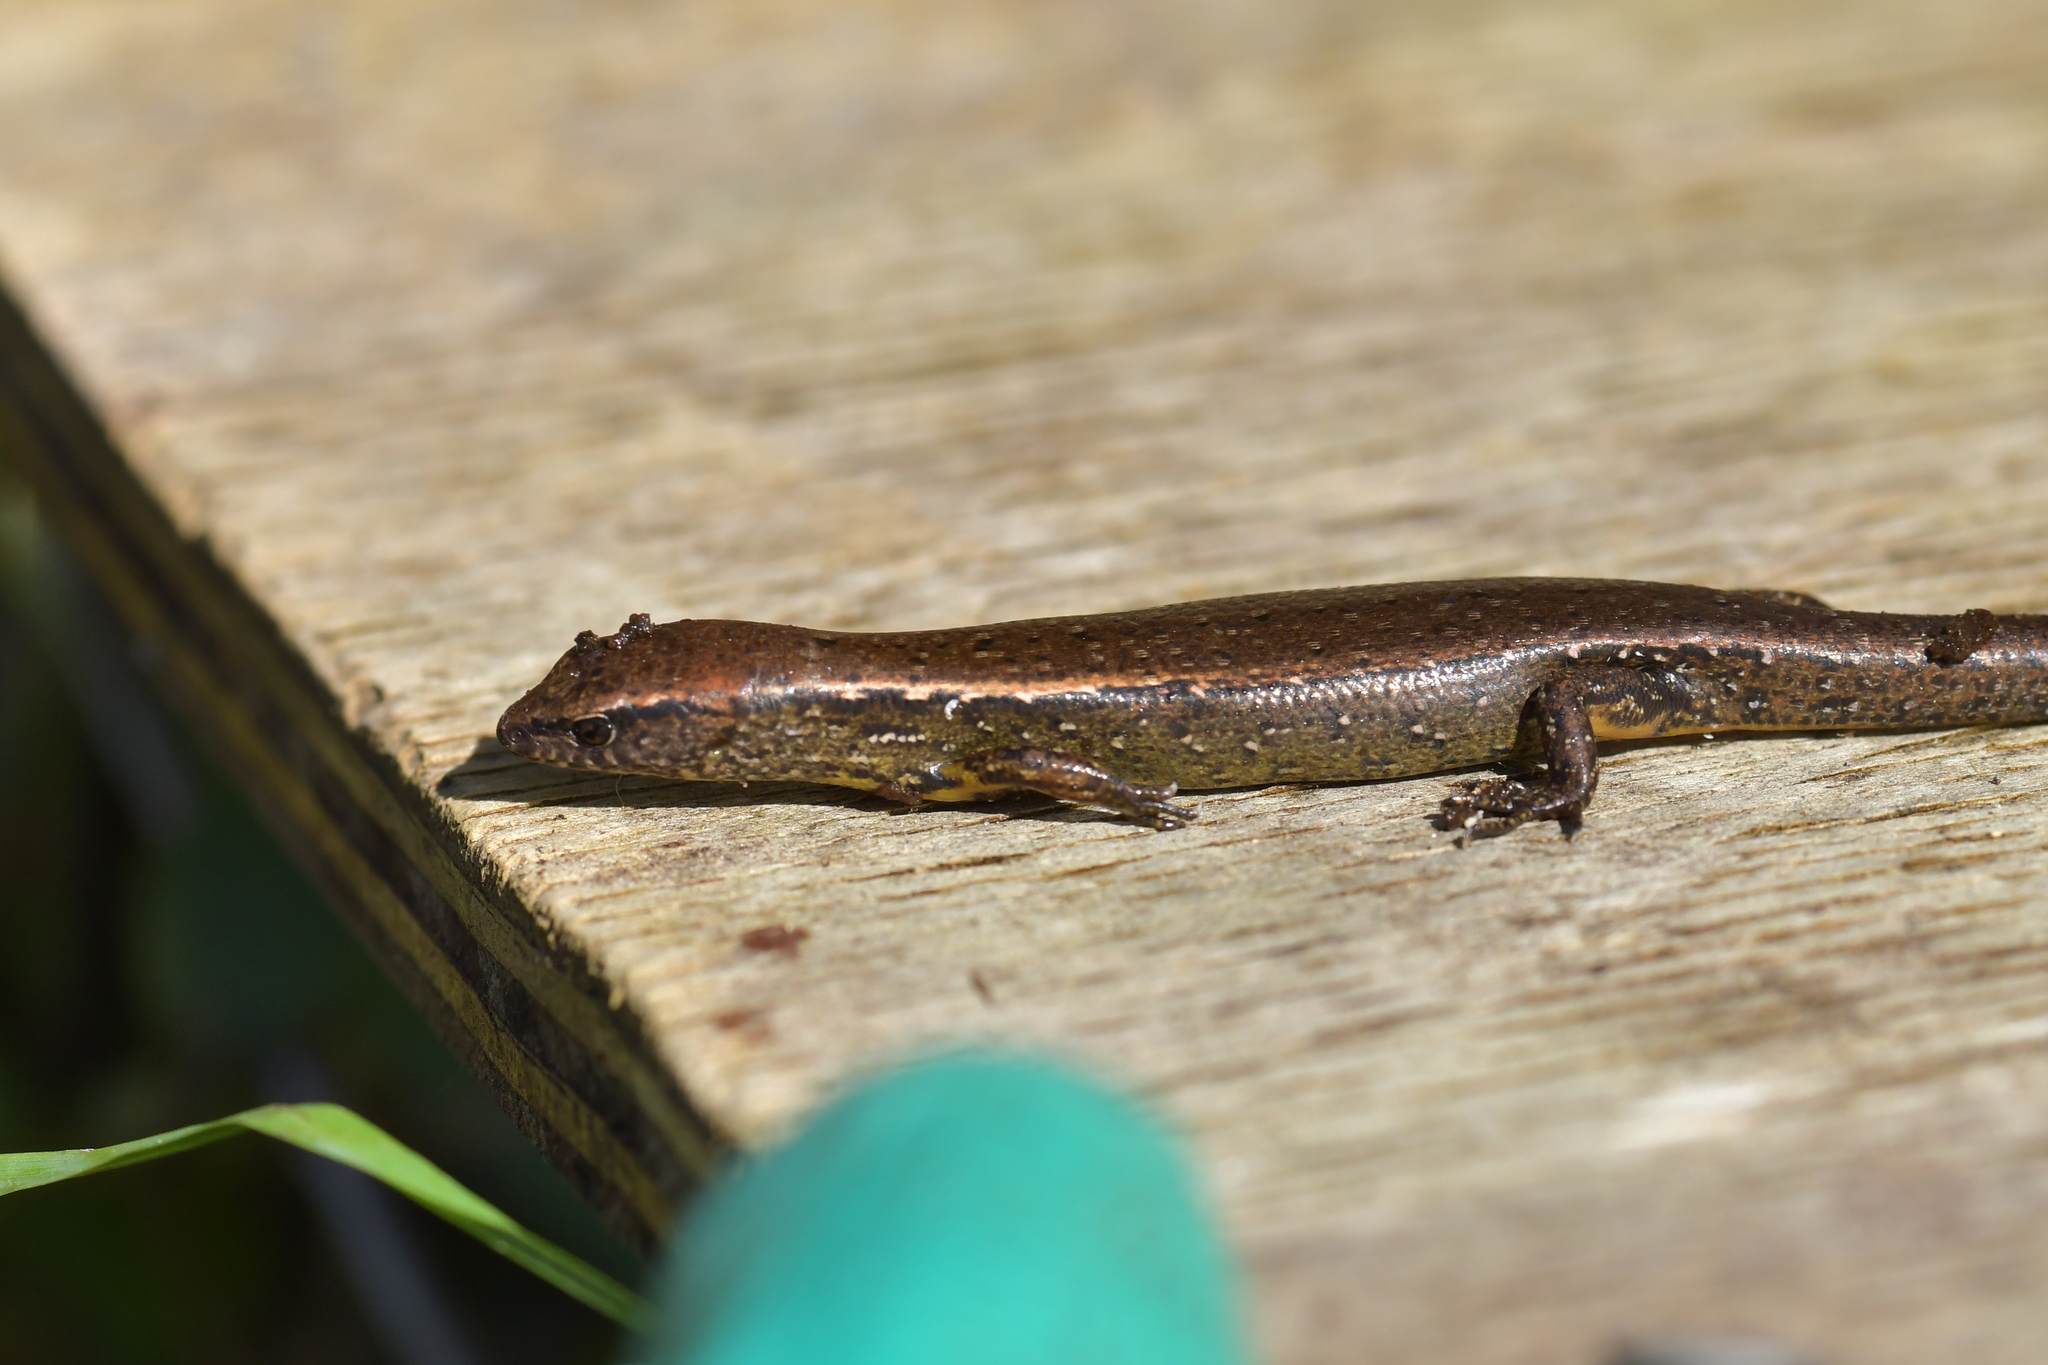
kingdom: Animalia
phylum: Chordata
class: Squamata
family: Scincidae
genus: Oligosoma
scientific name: Oligosoma aeneum
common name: Copper skink
